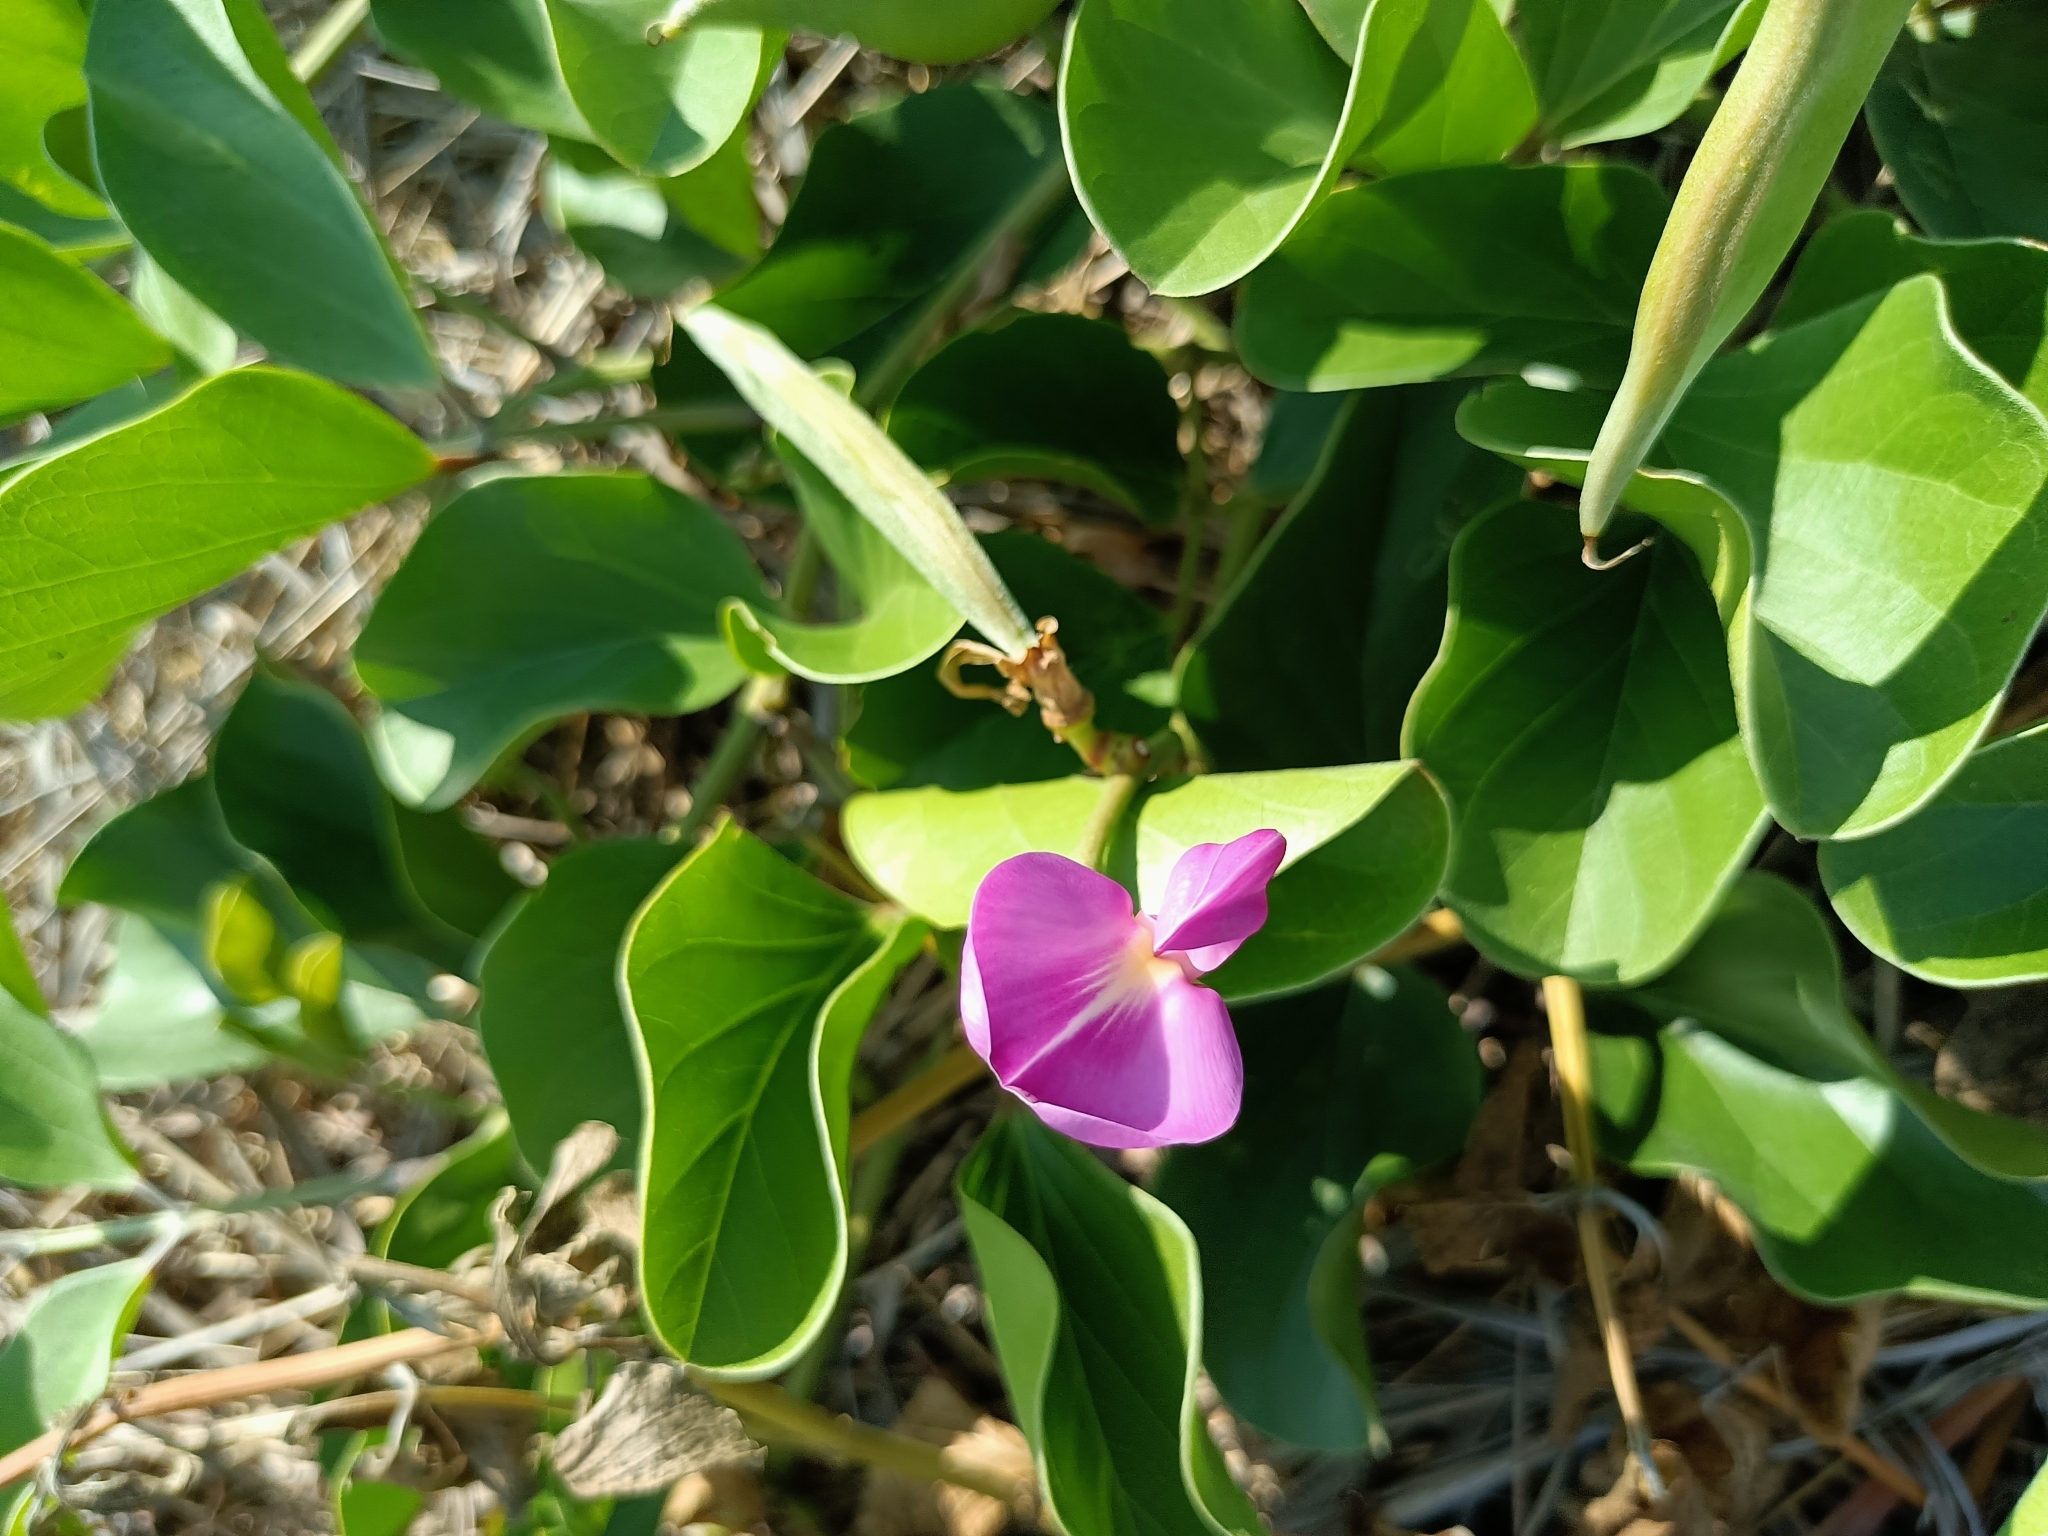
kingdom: Plantae
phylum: Tracheophyta
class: Magnoliopsida
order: Fabales
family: Fabaceae
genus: Canavalia
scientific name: Canavalia rosea
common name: Beach-bean
